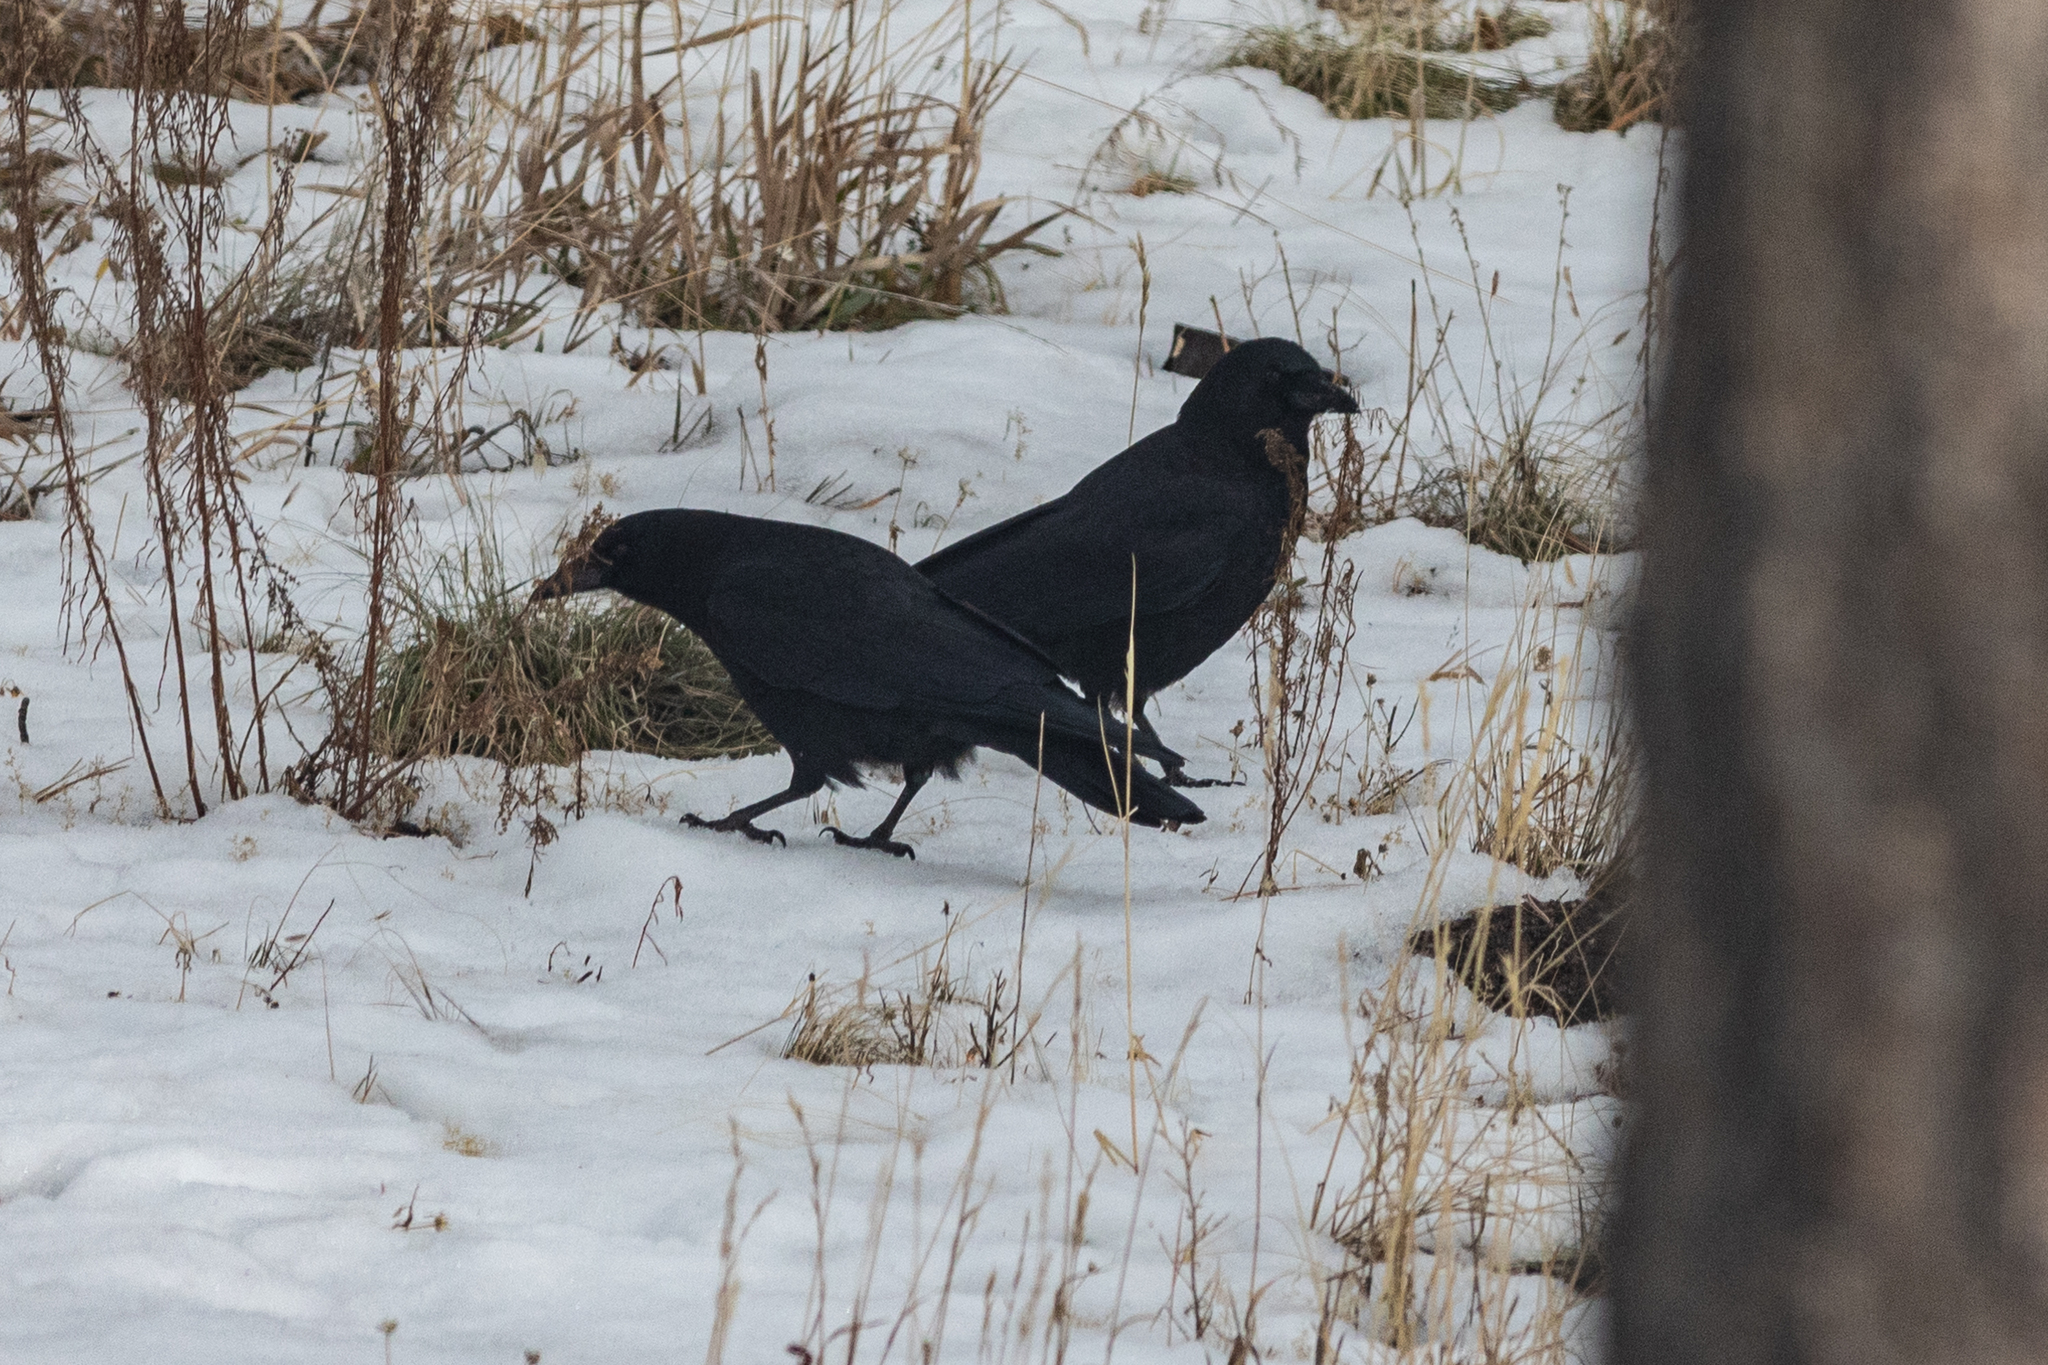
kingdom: Animalia
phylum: Chordata
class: Aves
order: Passeriformes
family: Corvidae
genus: Corvus
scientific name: Corvus brachyrhynchos
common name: American crow
